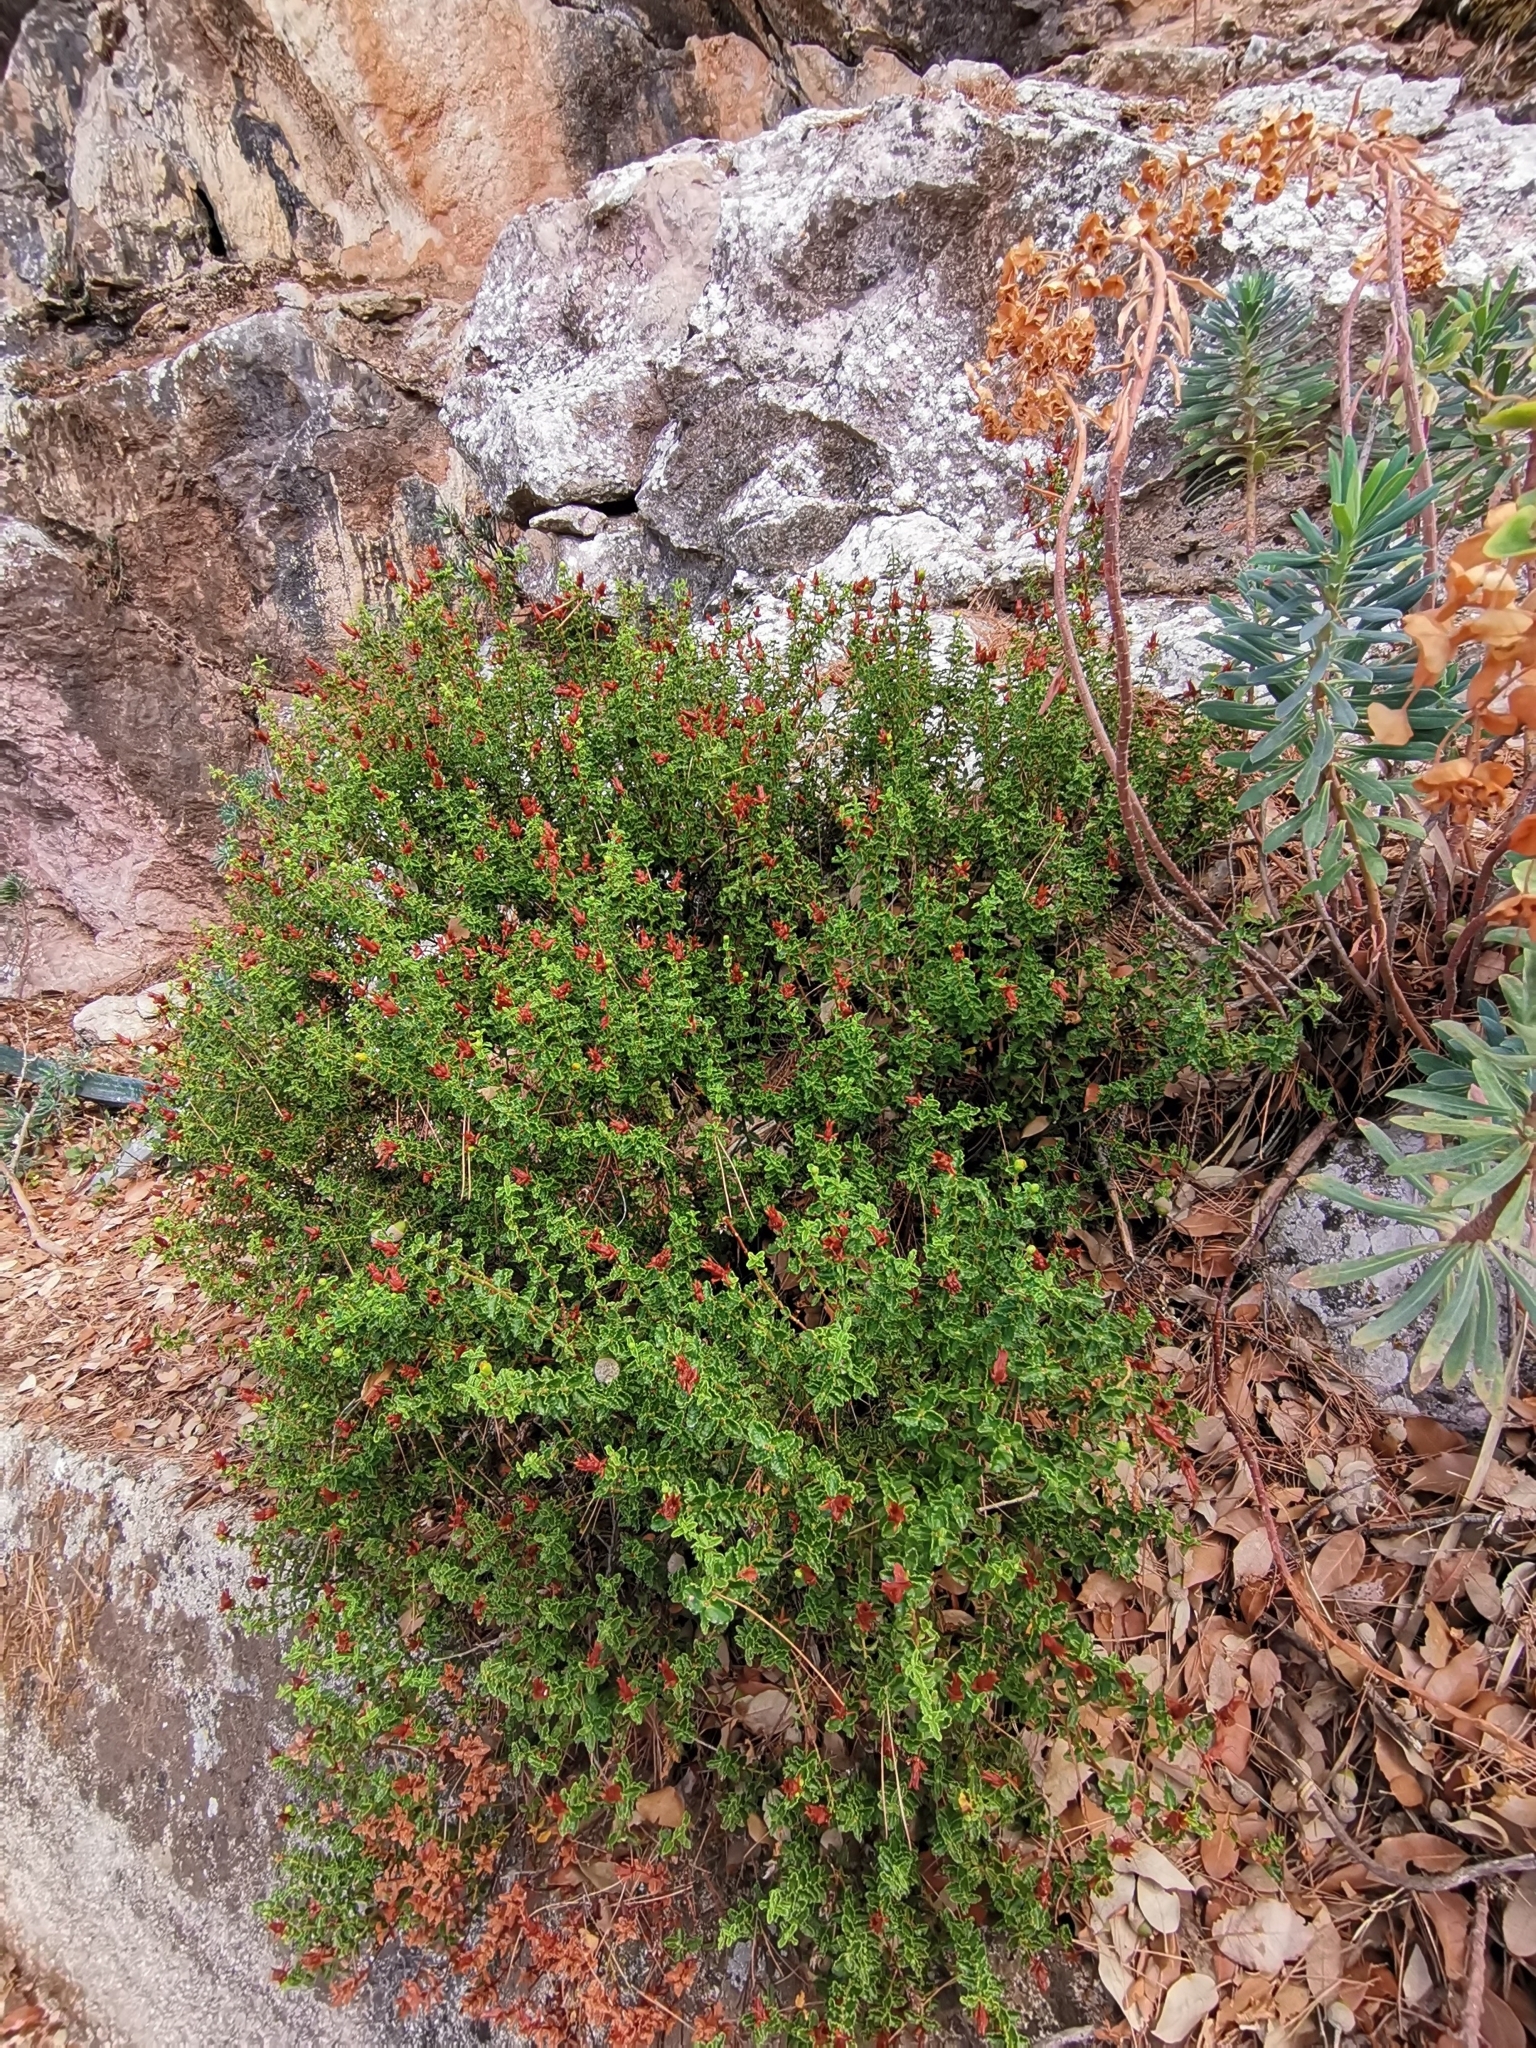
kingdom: Plantae
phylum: Tracheophyta
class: Magnoliopsida
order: Malpighiales
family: Hypericaceae
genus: Hypericum
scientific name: Hypericum balearicum
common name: Majorca st john's wort
